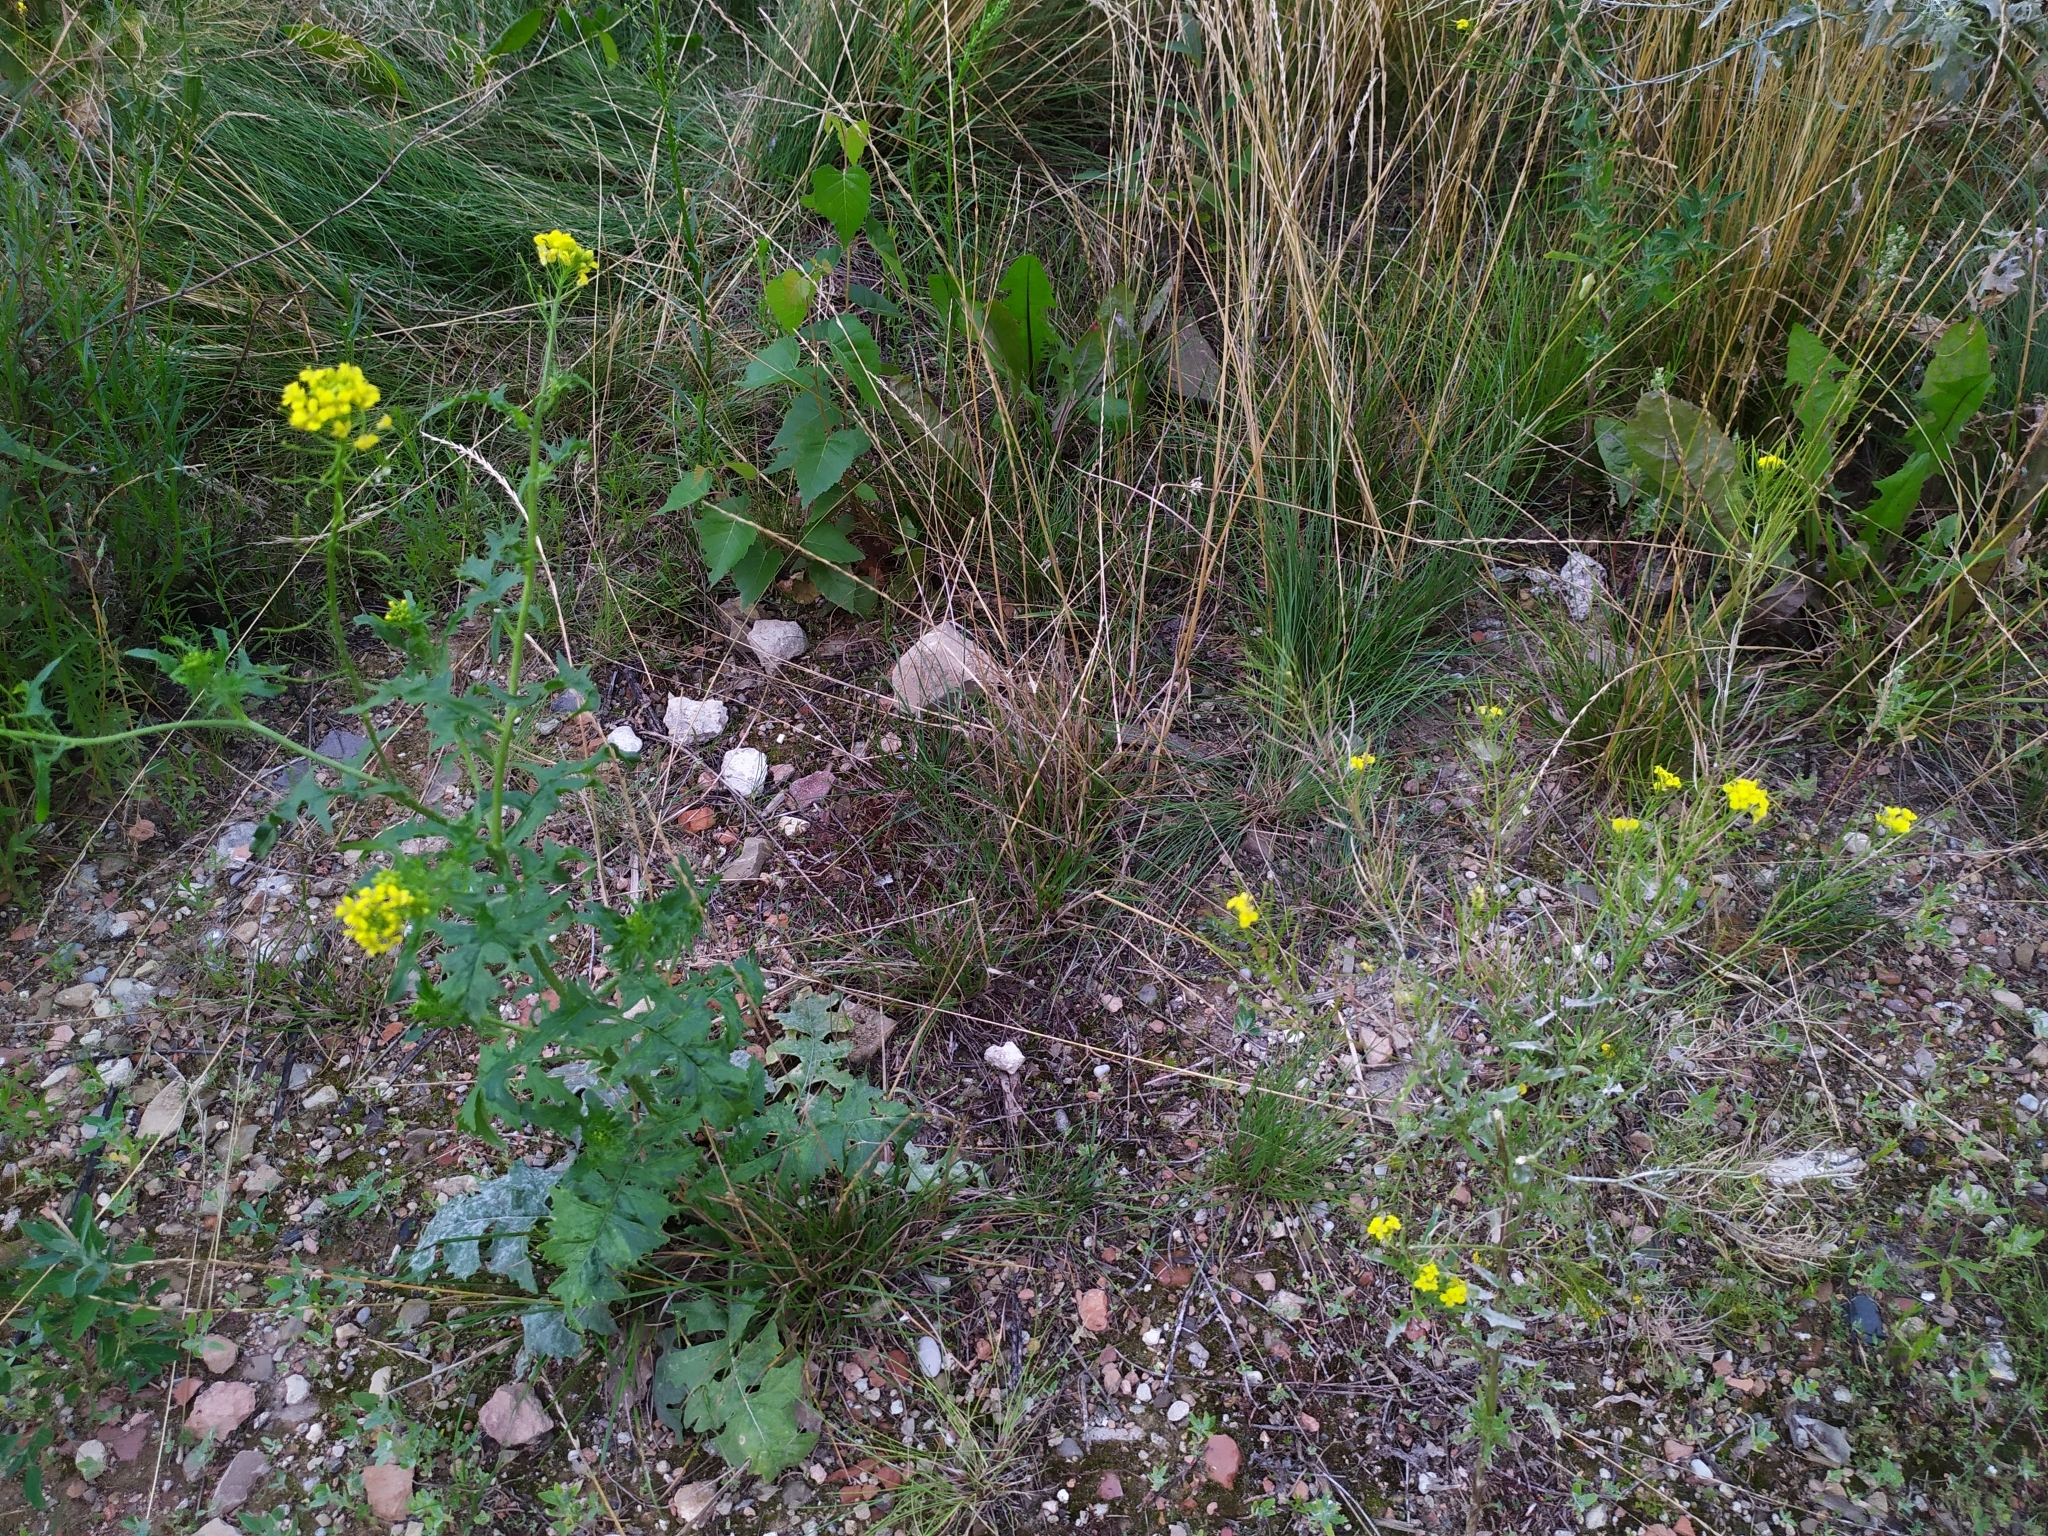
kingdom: Plantae
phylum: Tracheophyta
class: Magnoliopsida
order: Brassicales
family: Brassicaceae
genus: Sisymbrium
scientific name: Sisymbrium loeselii
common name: False london-rocket
